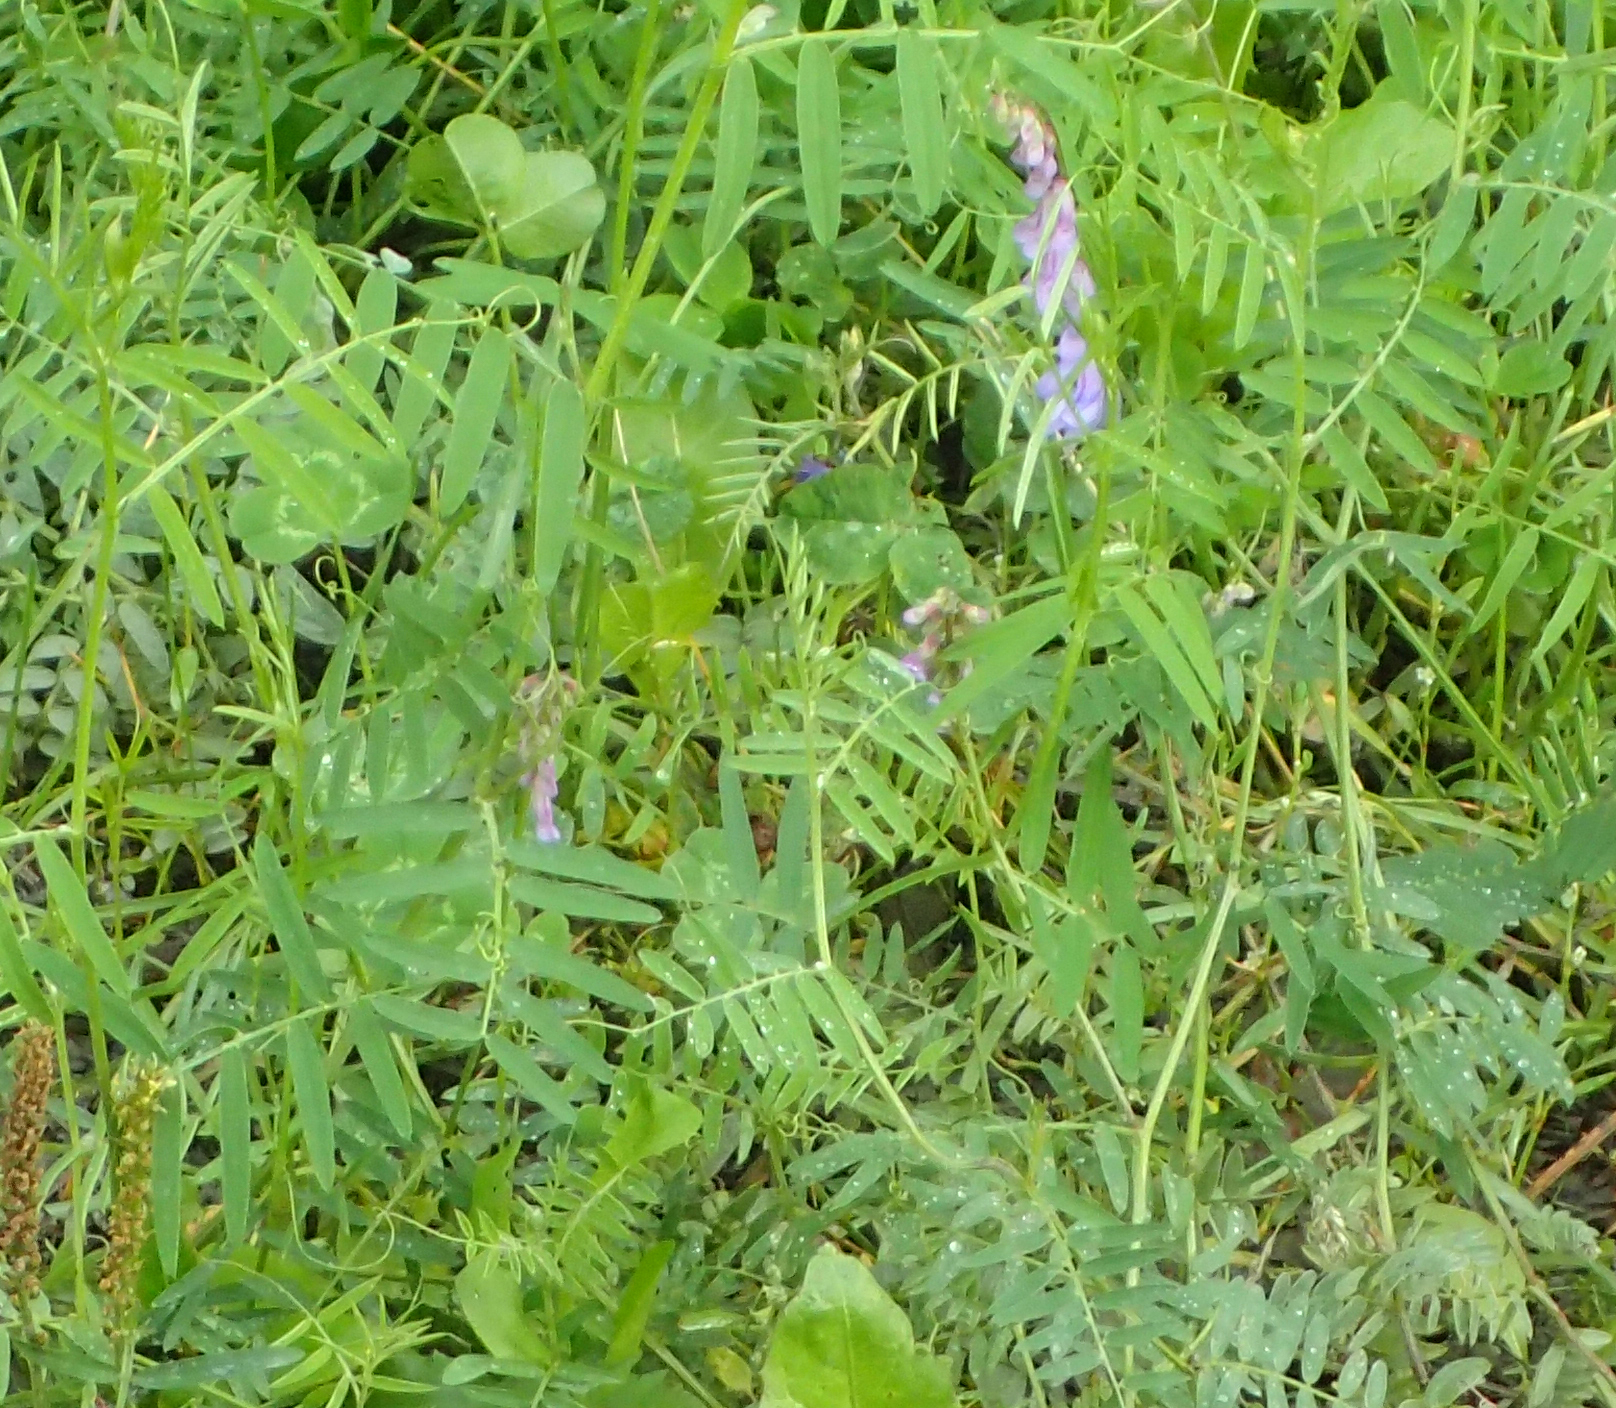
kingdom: Plantae
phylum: Tracheophyta
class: Magnoliopsida
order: Fabales
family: Fabaceae
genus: Vicia
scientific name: Vicia cracca
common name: Bird vetch
